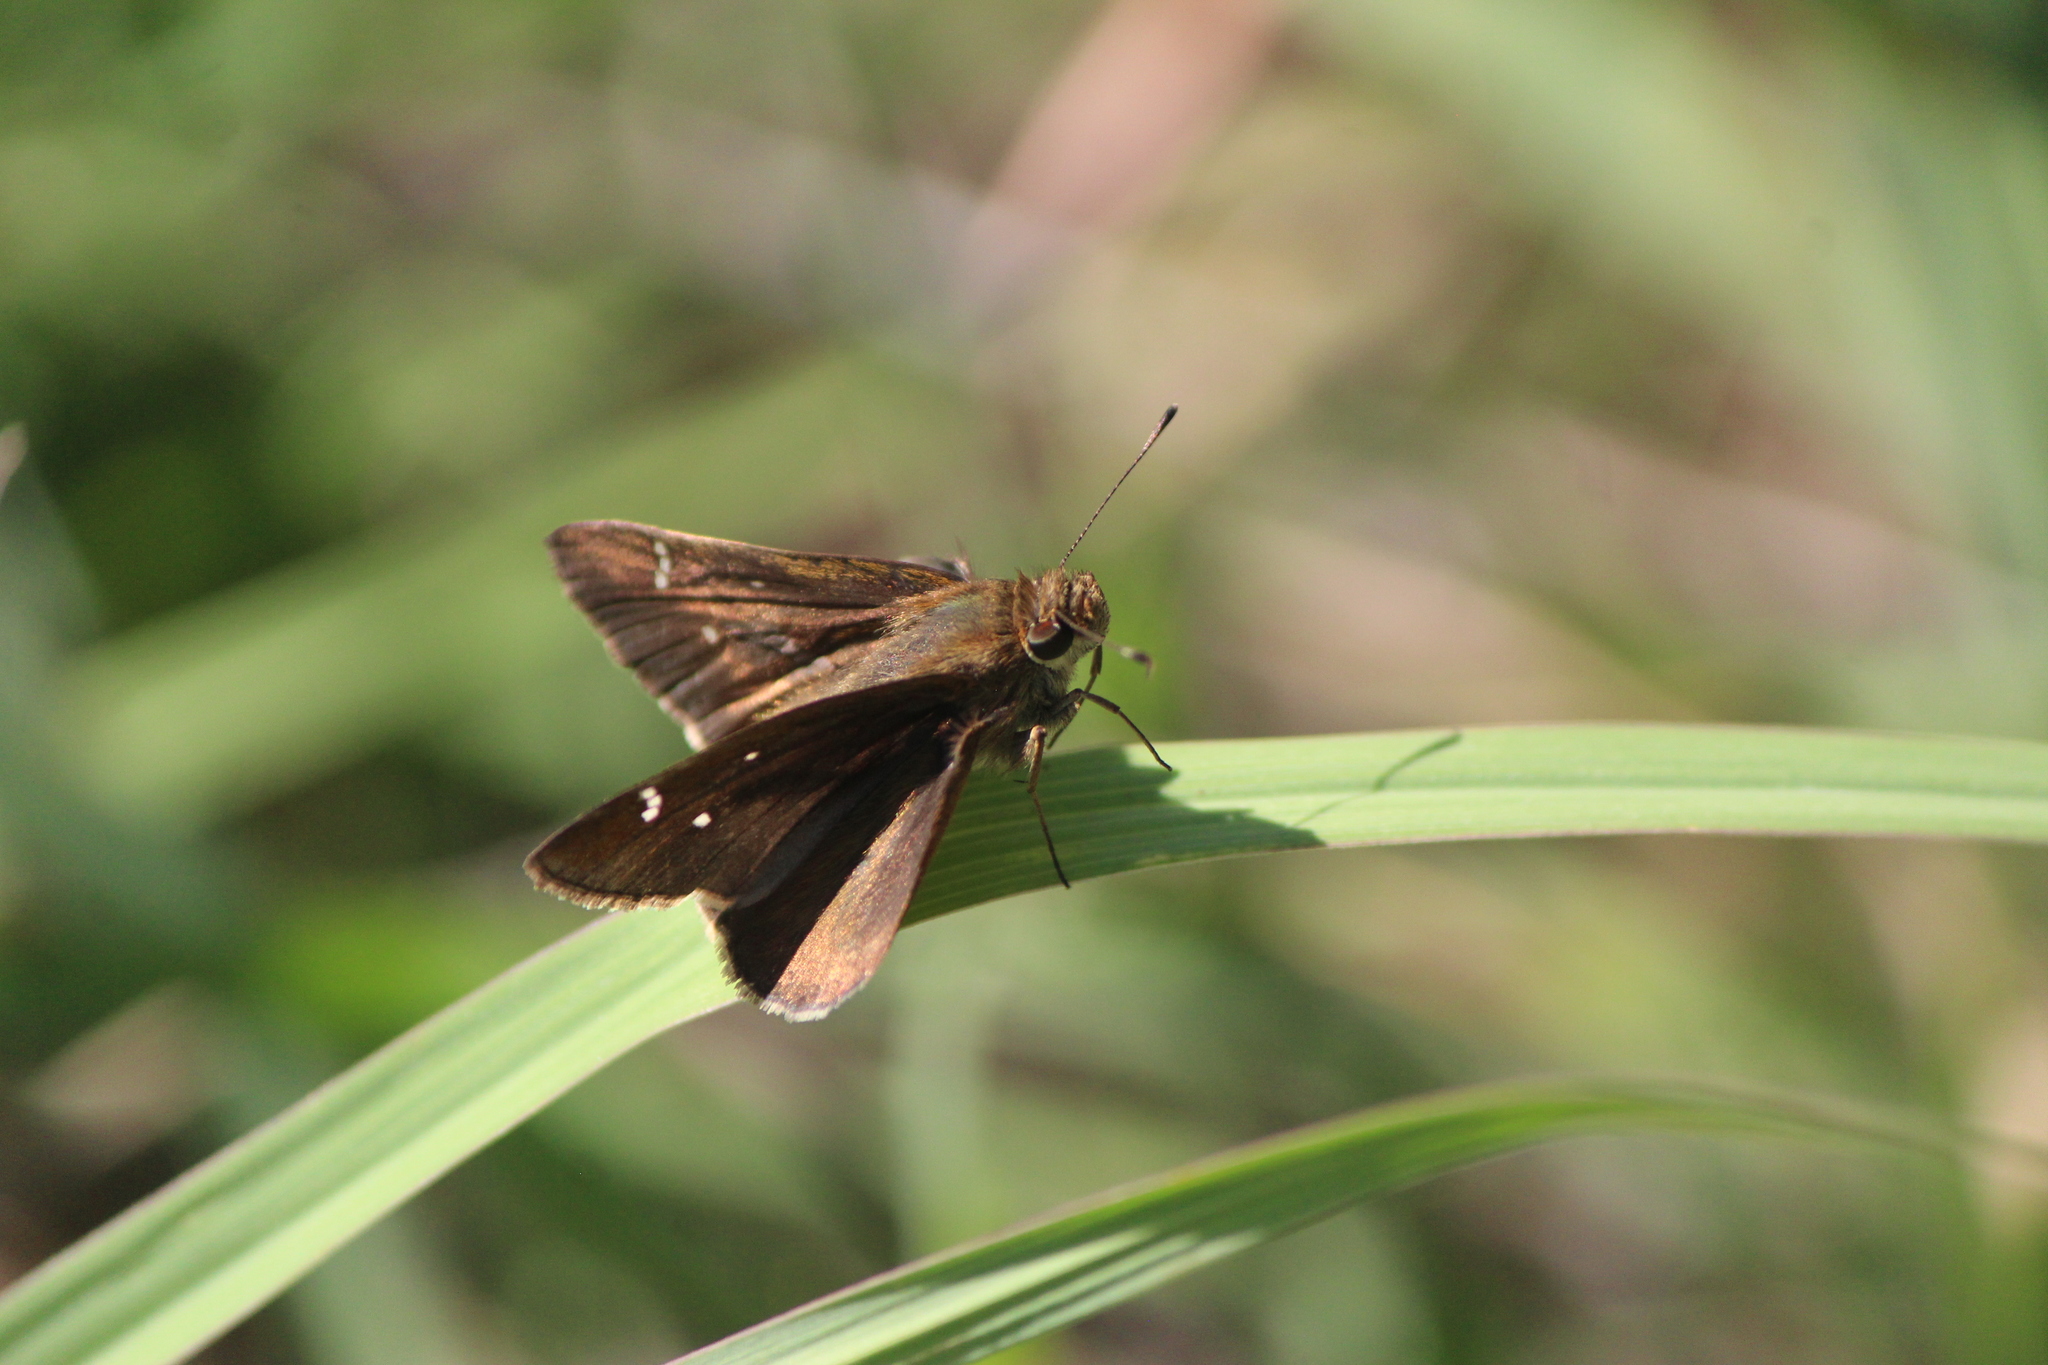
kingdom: Animalia
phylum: Arthropoda
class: Insecta
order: Lepidoptera
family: Hesperiidae
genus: Lerema
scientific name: Lerema accius
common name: Clouded skipper
